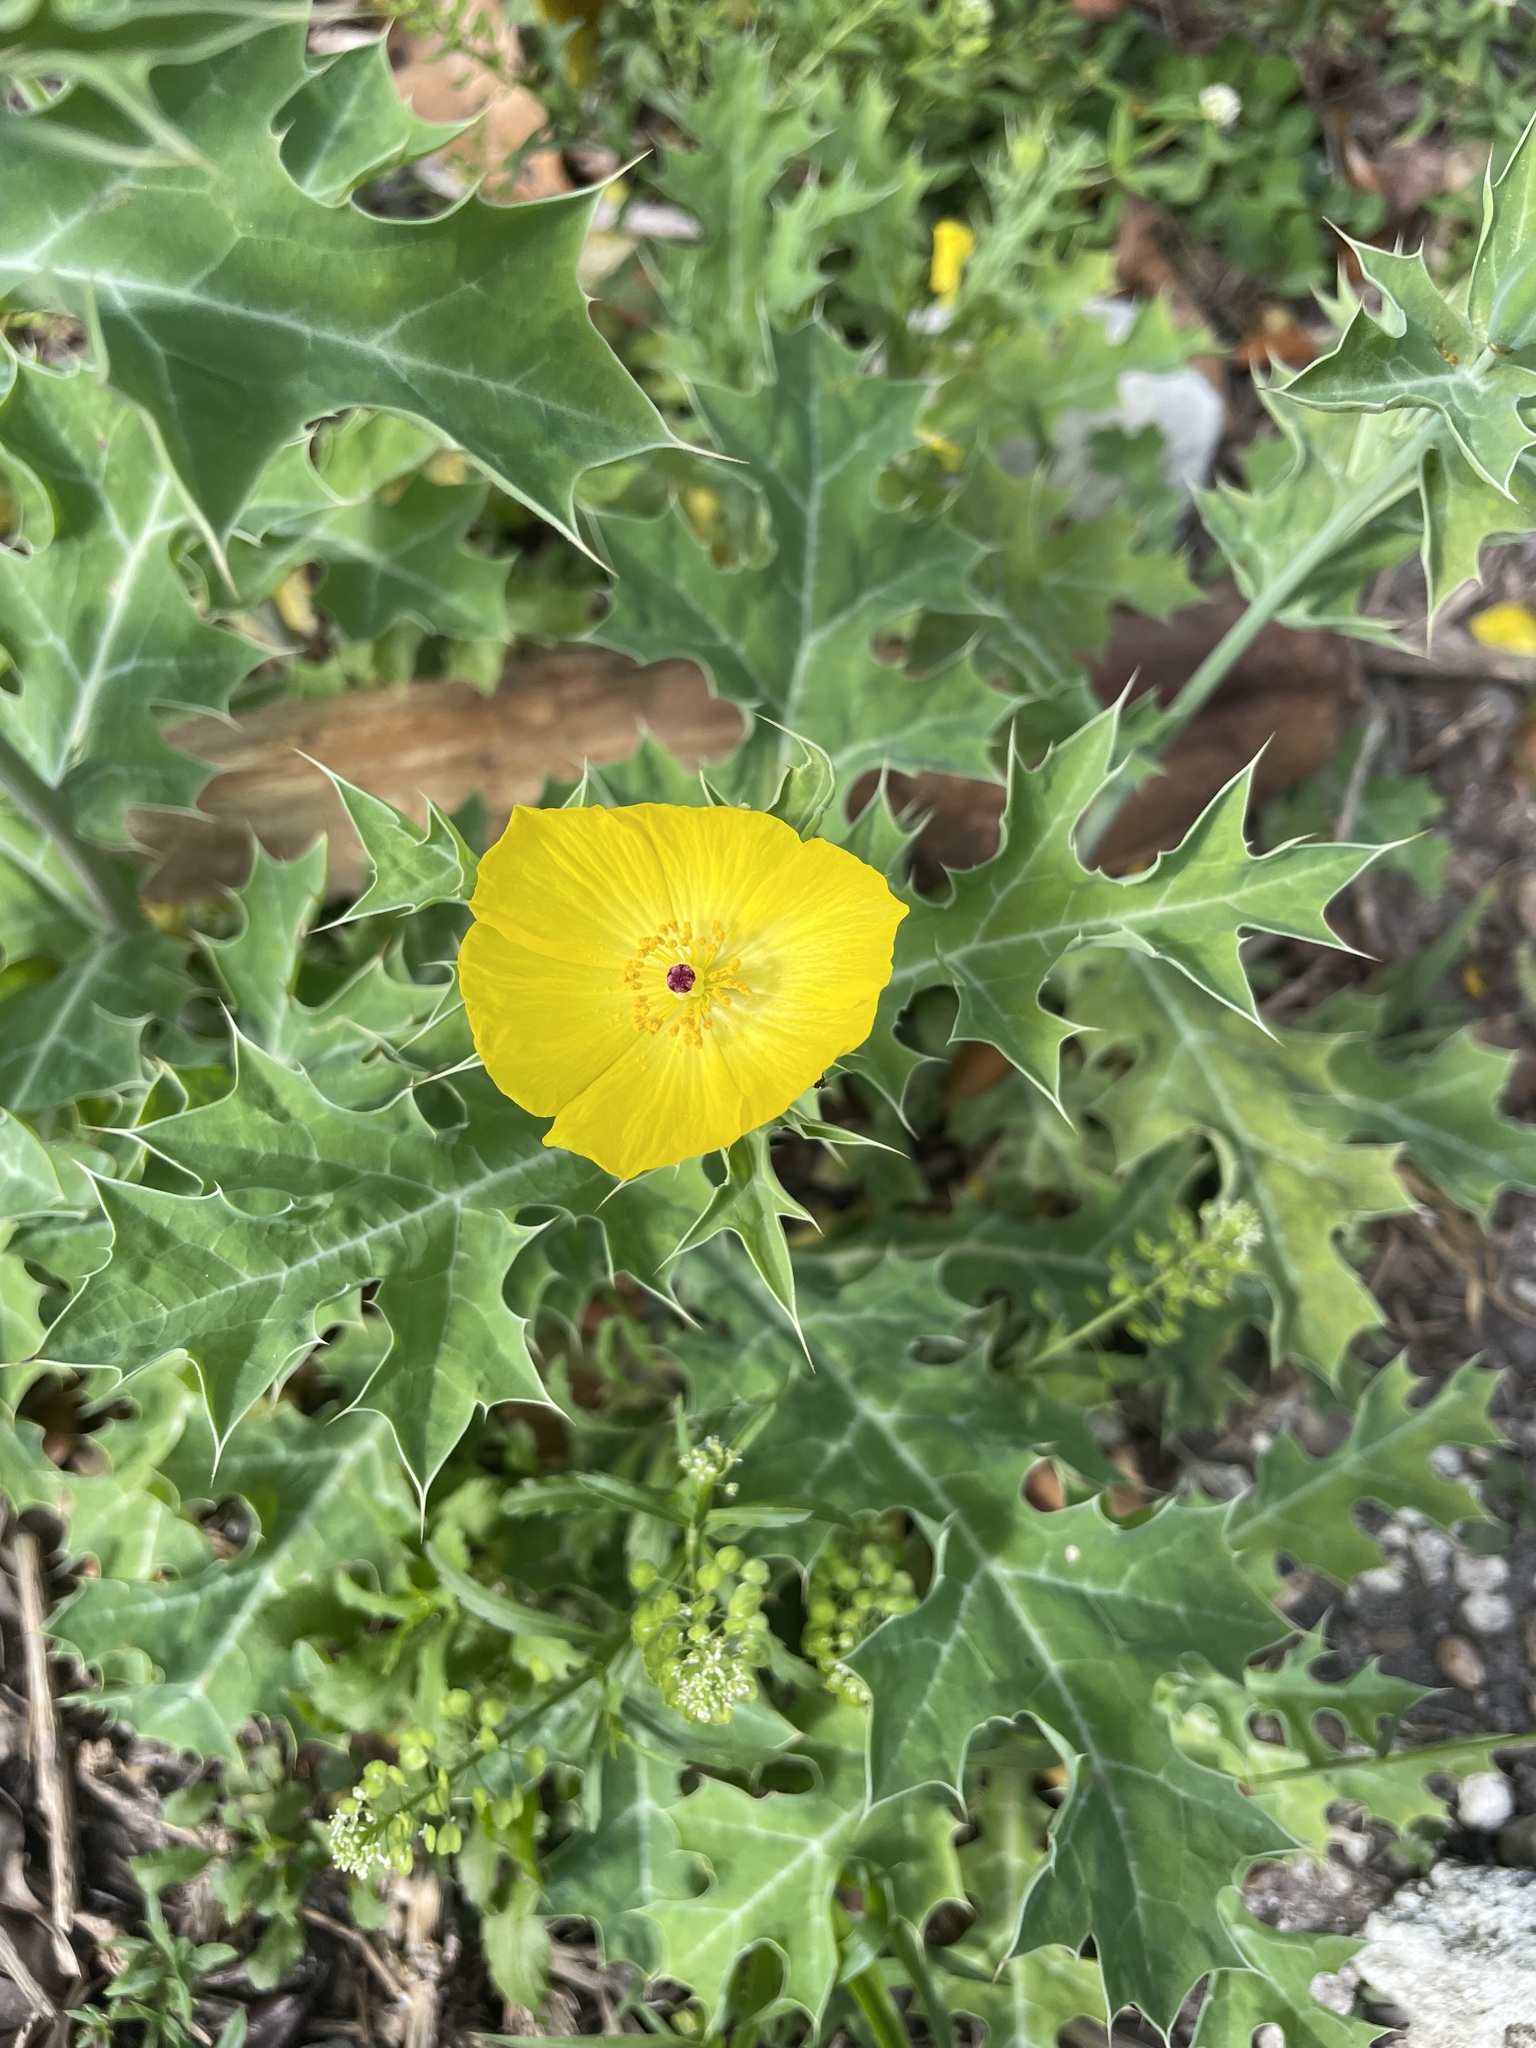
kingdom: Plantae
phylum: Tracheophyta
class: Magnoliopsida
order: Ranunculales
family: Papaveraceae
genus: Argemone
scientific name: Argemone mexicana
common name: Mexican poppy
